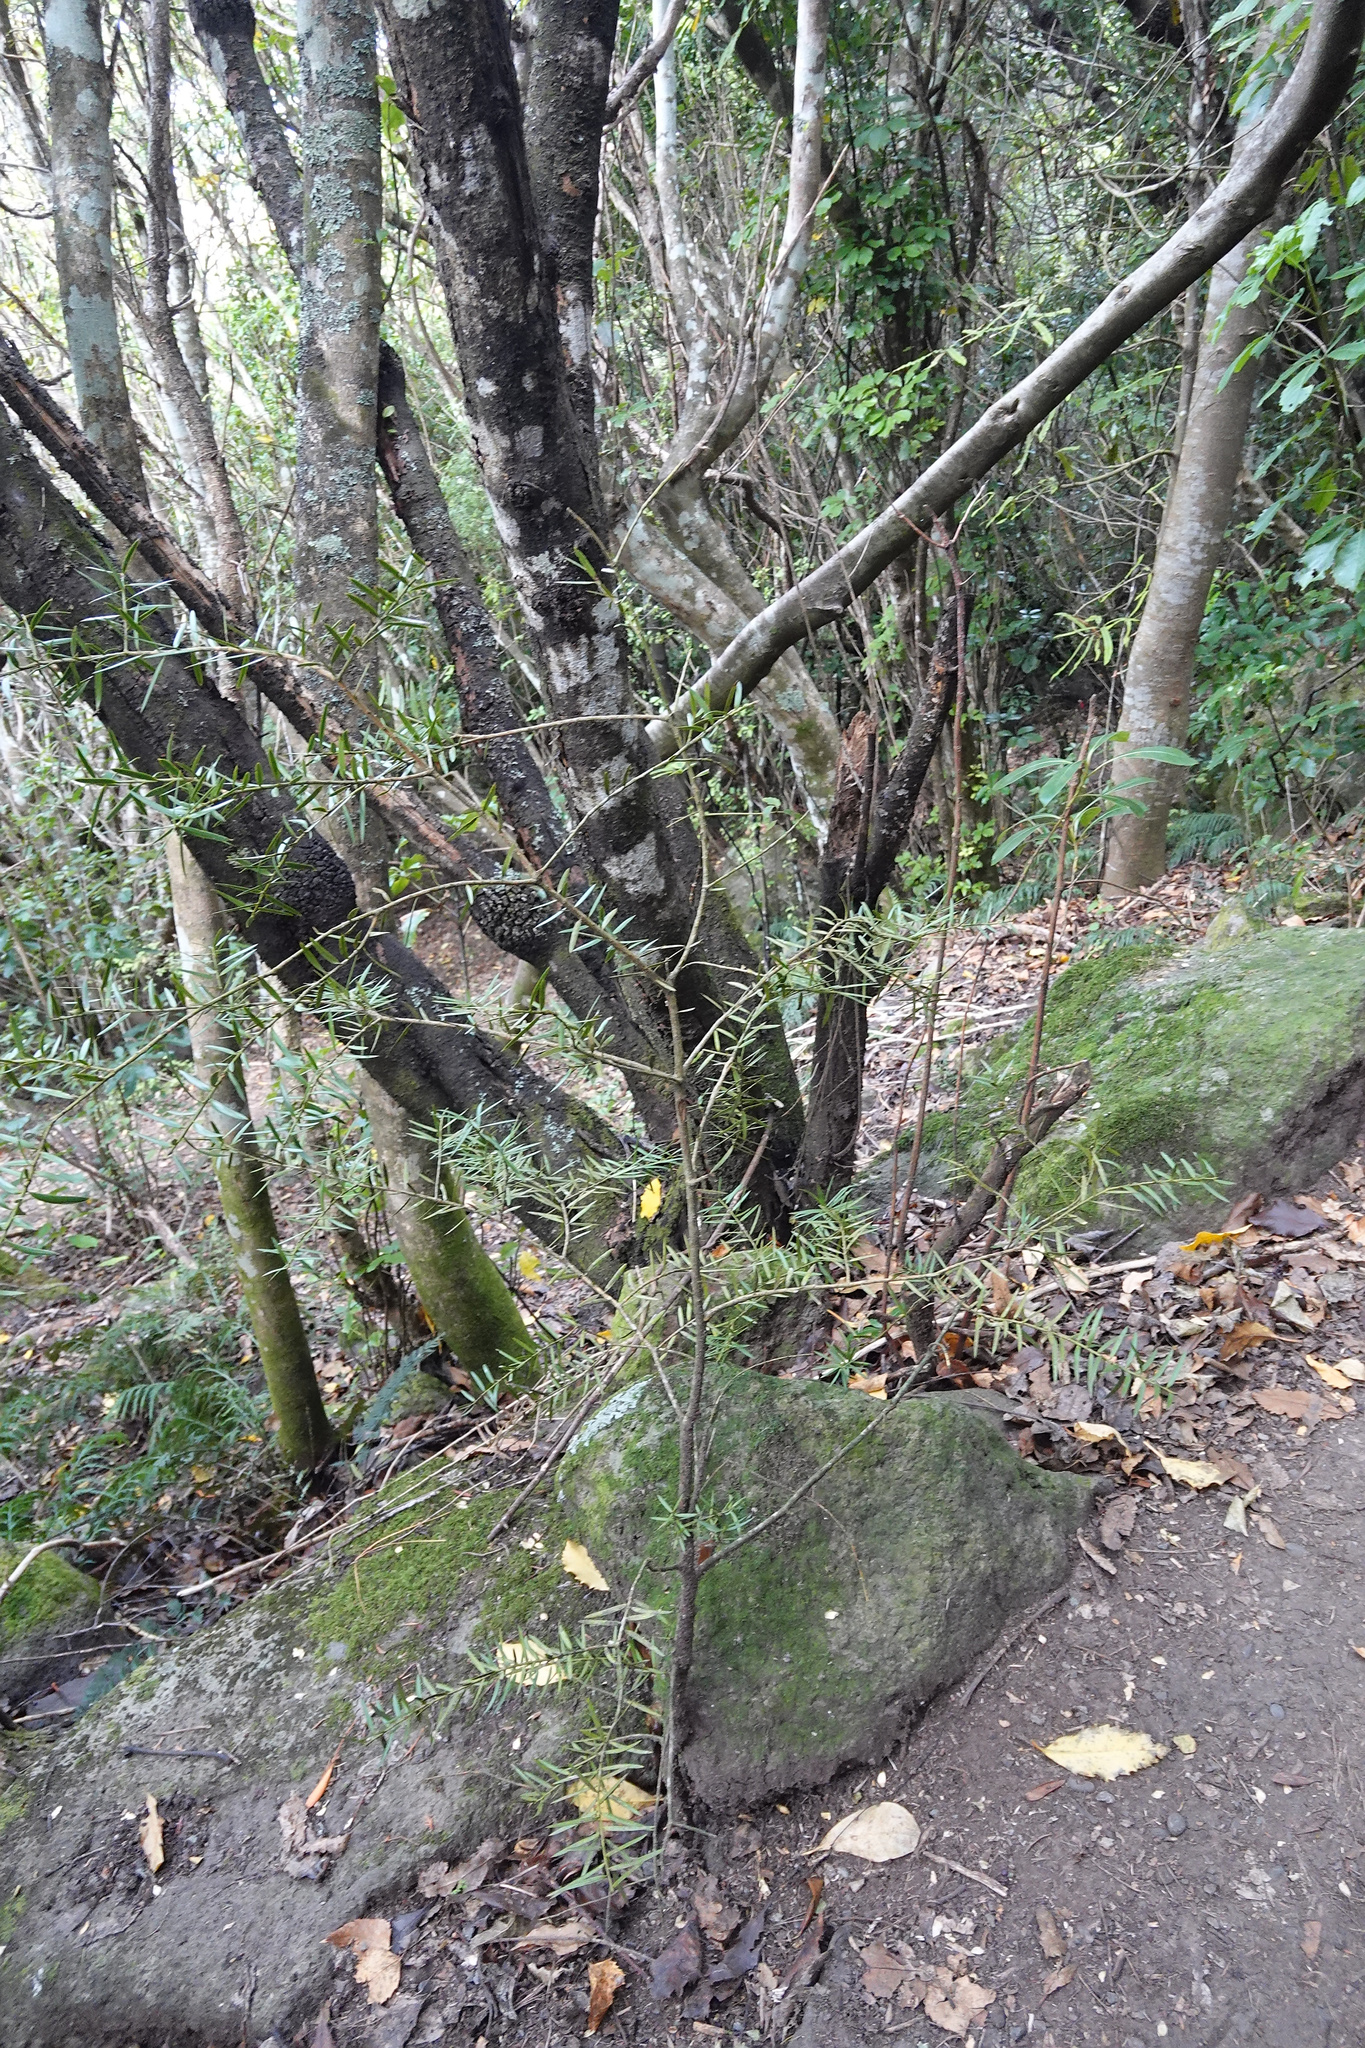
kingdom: Plantae
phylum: Tracheophyta
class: Pinopsida
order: Pinales
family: Podocarpaceae
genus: Podocarpus
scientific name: Podocarpus totara
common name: Totara
